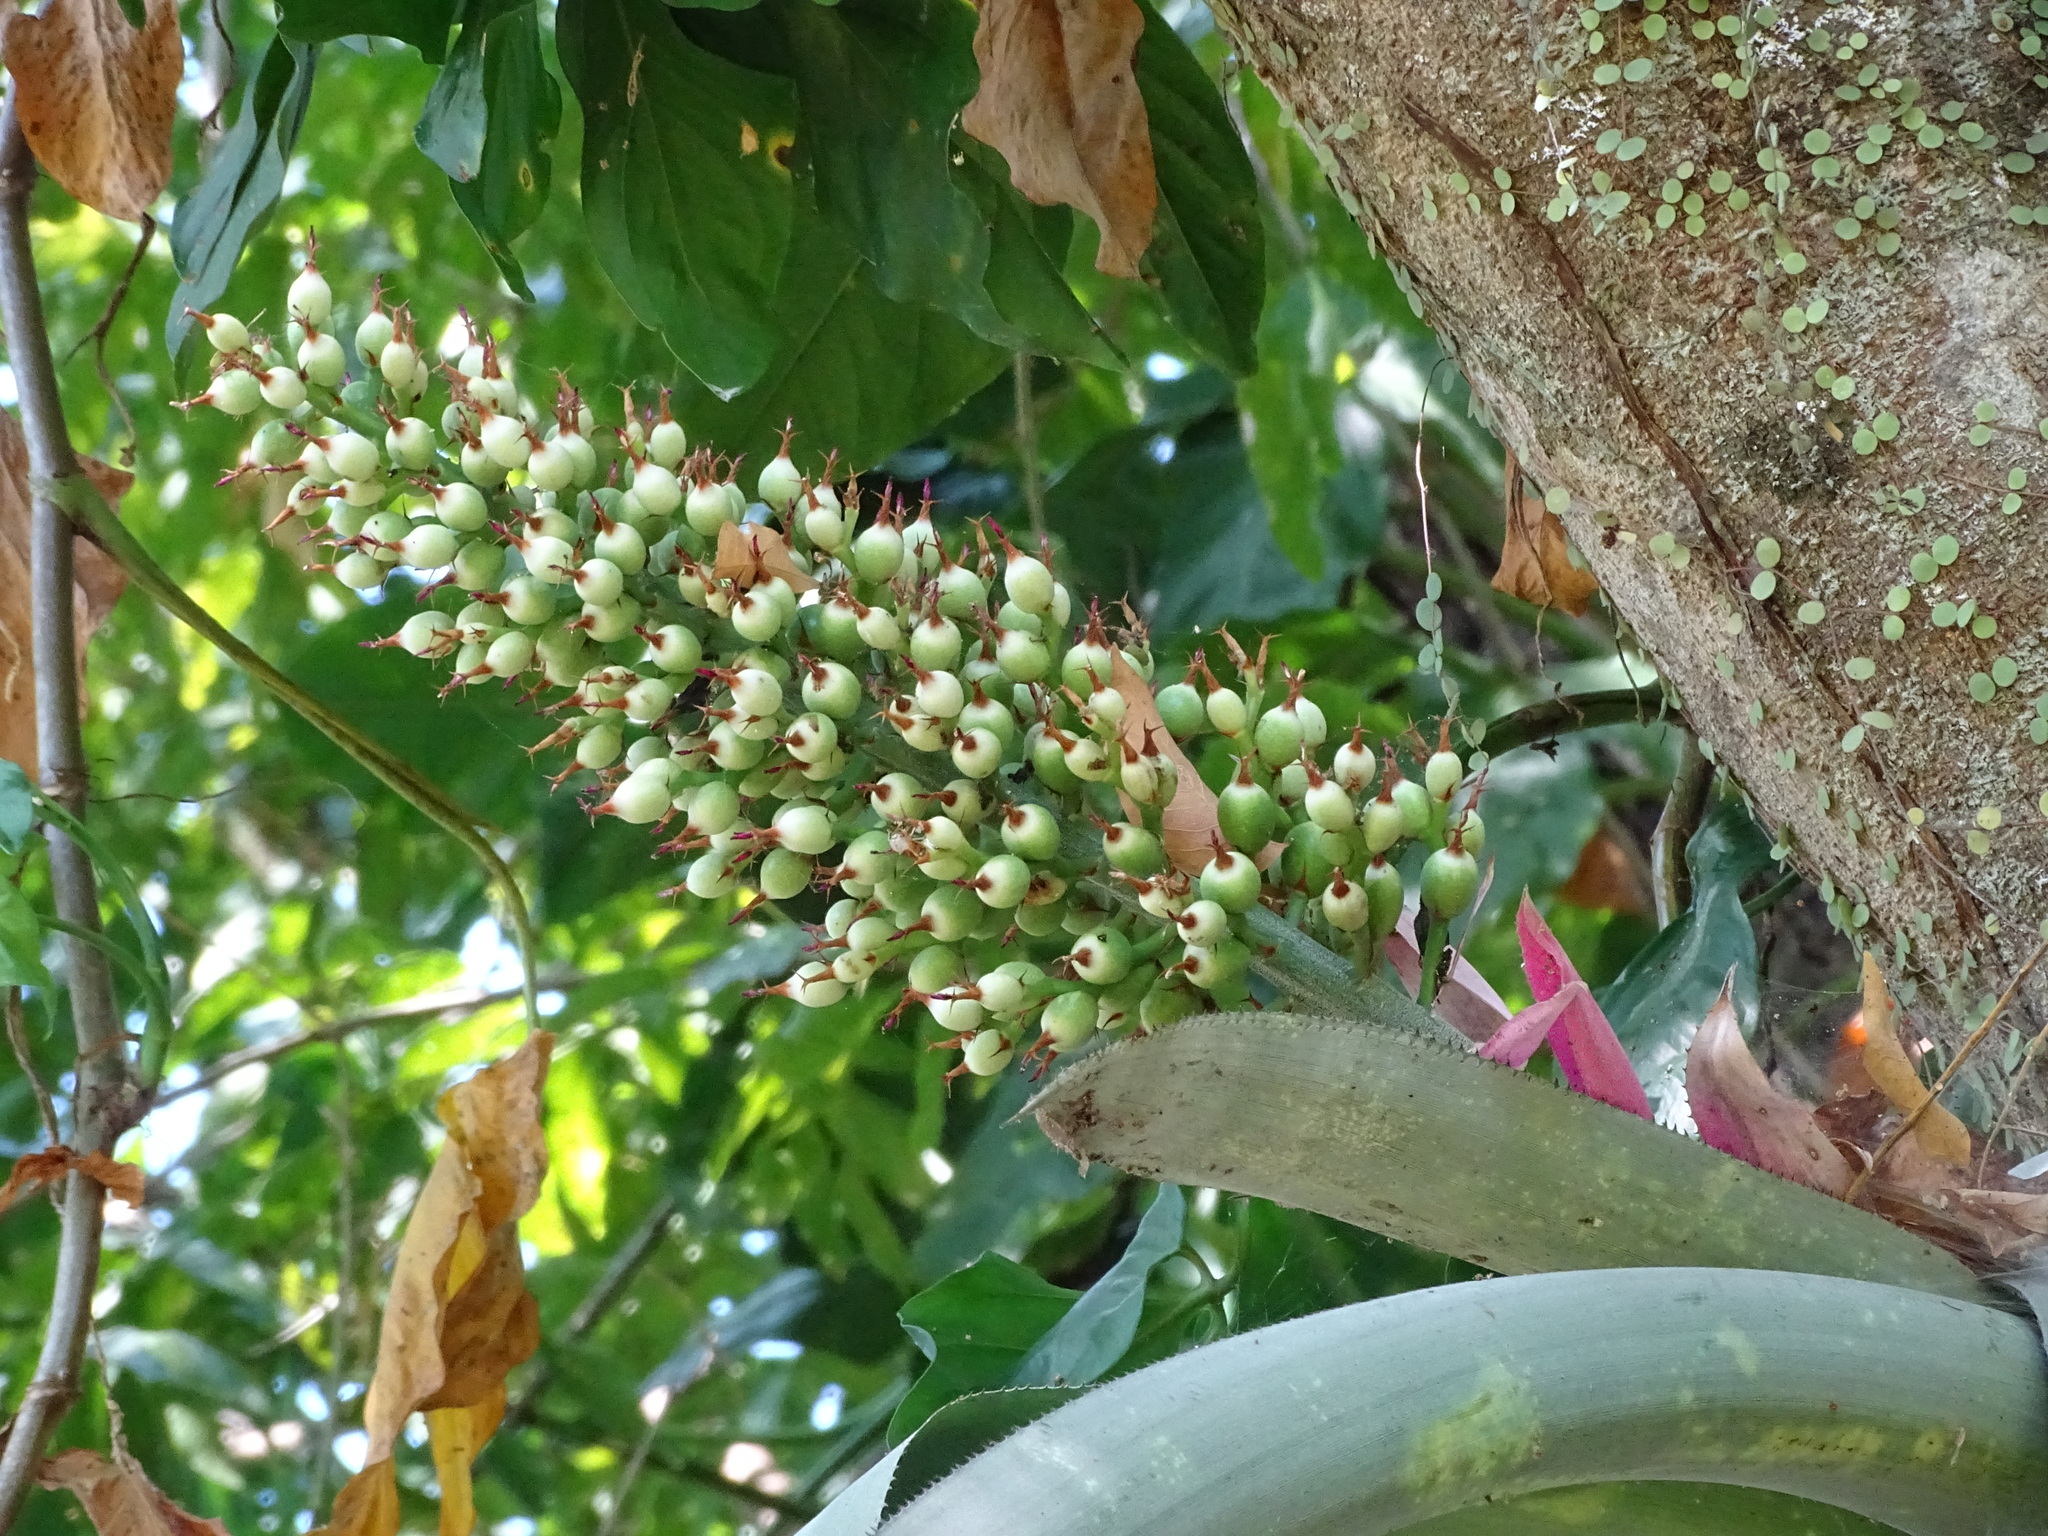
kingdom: Plantae
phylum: Tracheophyta
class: Liliopsida
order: Poales
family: Bromeliaceae
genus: Aechmea
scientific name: Aechmea matudae
